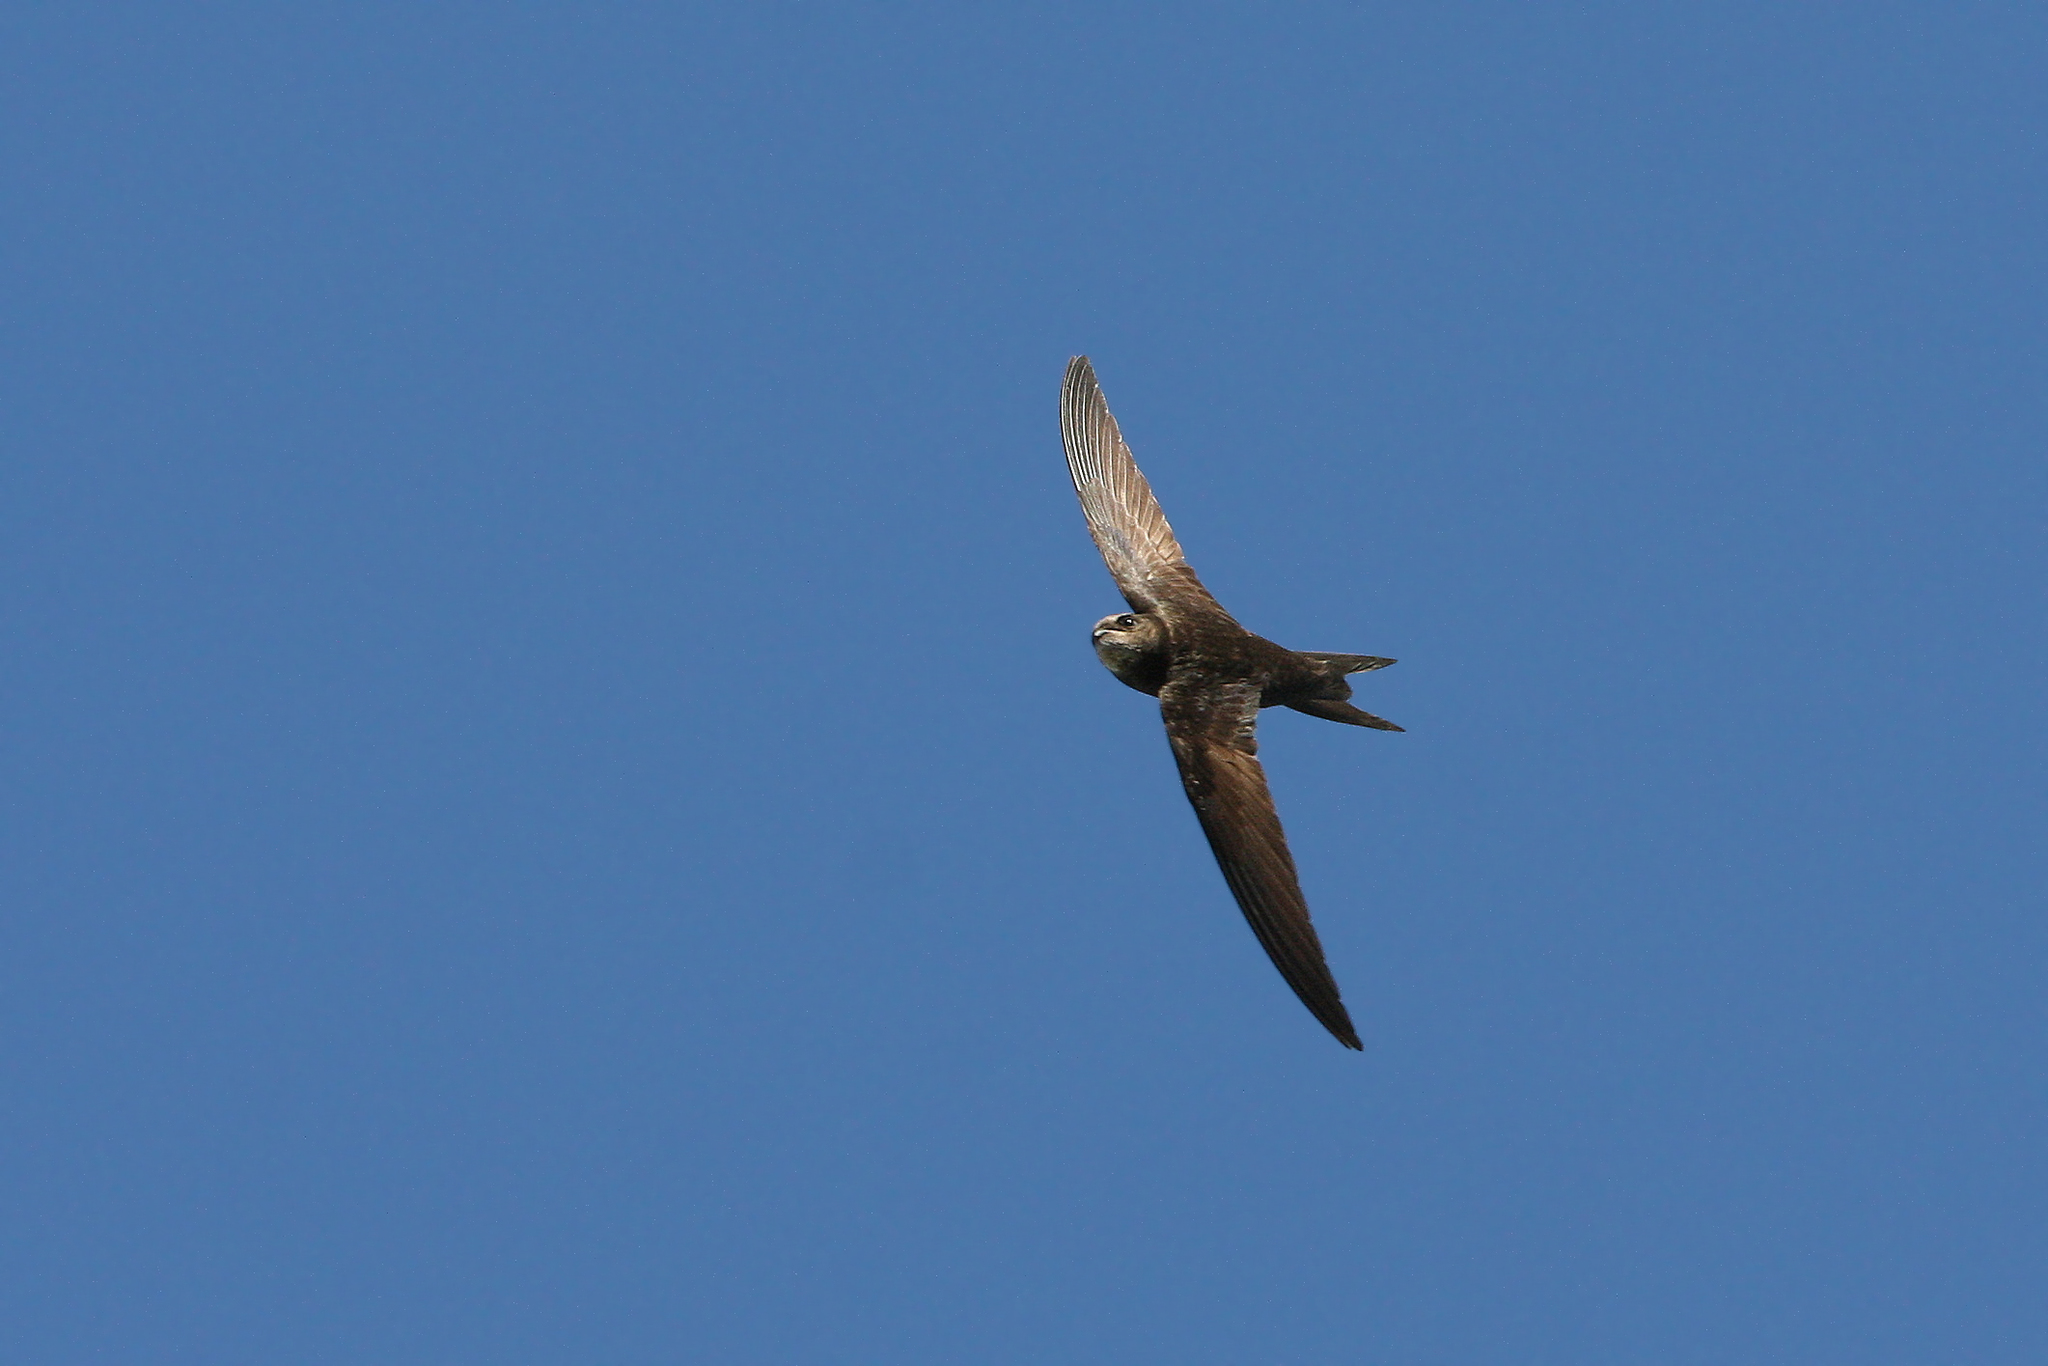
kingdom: Animalia
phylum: Chordata
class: Aves
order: Apodiformes
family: Apodidae
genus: Apus
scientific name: Apus apus
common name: Common swift
